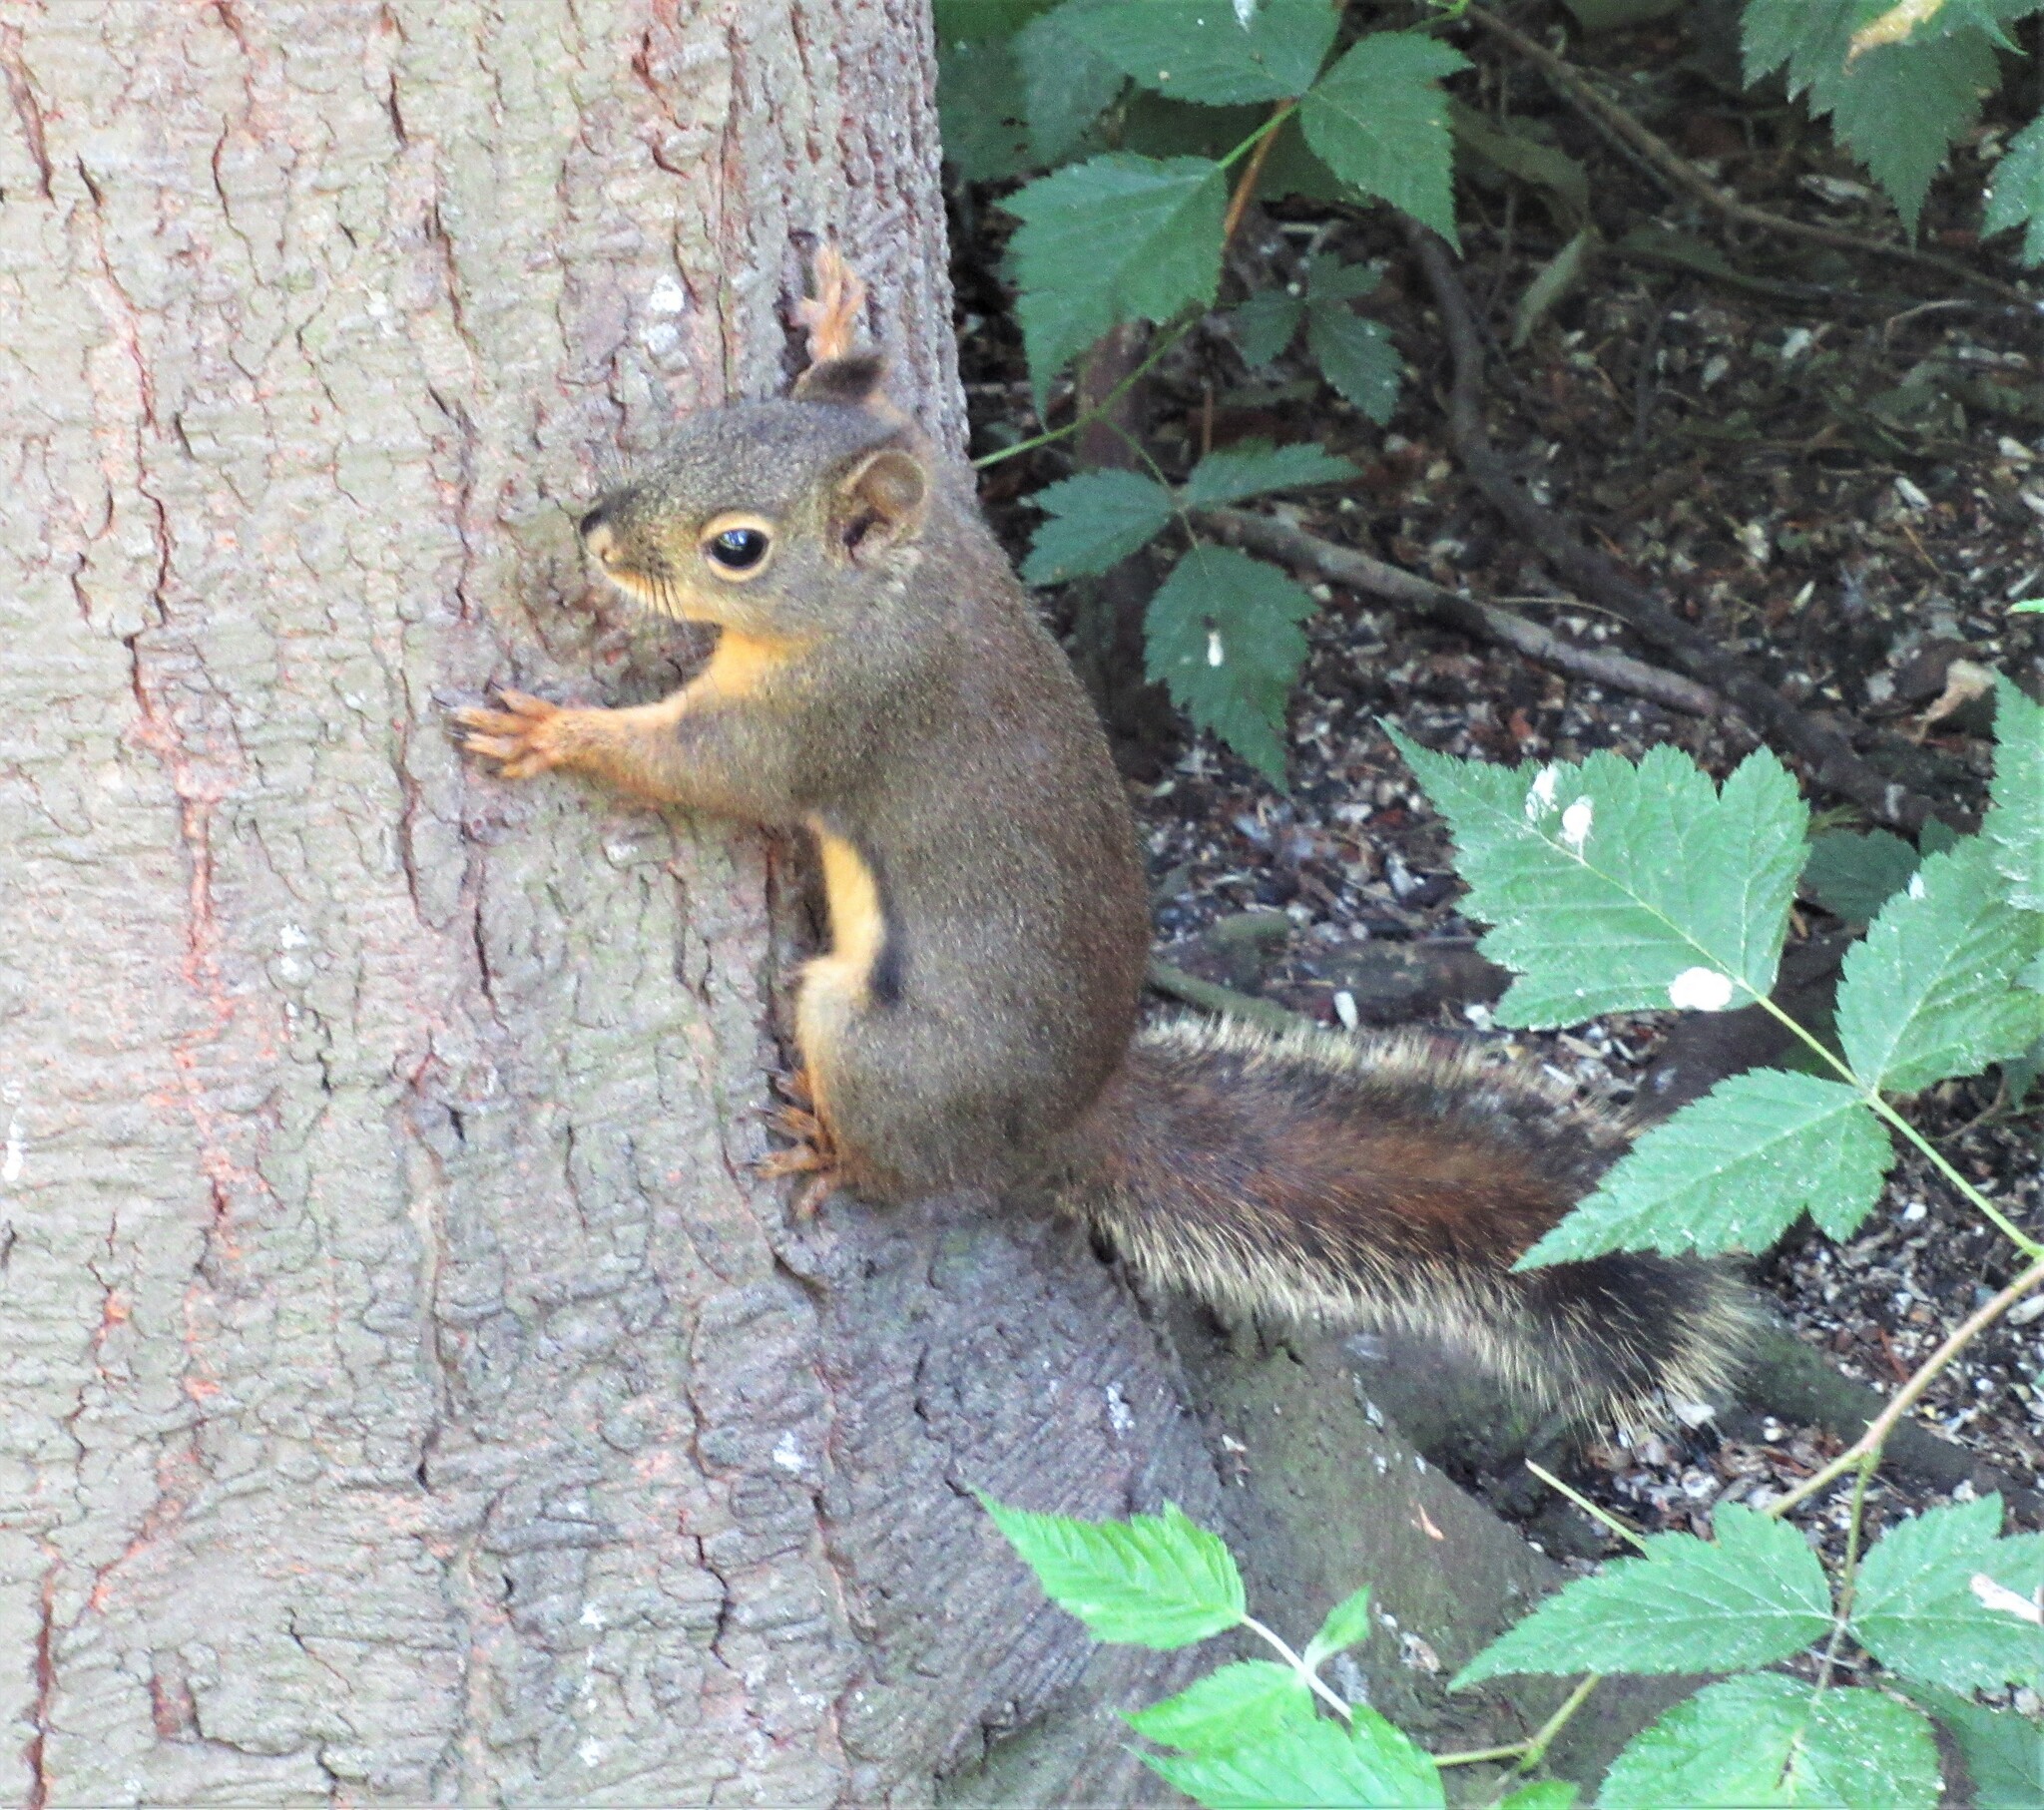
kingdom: Animalia
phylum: Chordata
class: Mammalia
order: Rodentia
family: Sciuridae
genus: Tamiasciurus
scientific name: Tamiasciurus douglasii
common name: Douglas's squirrel
